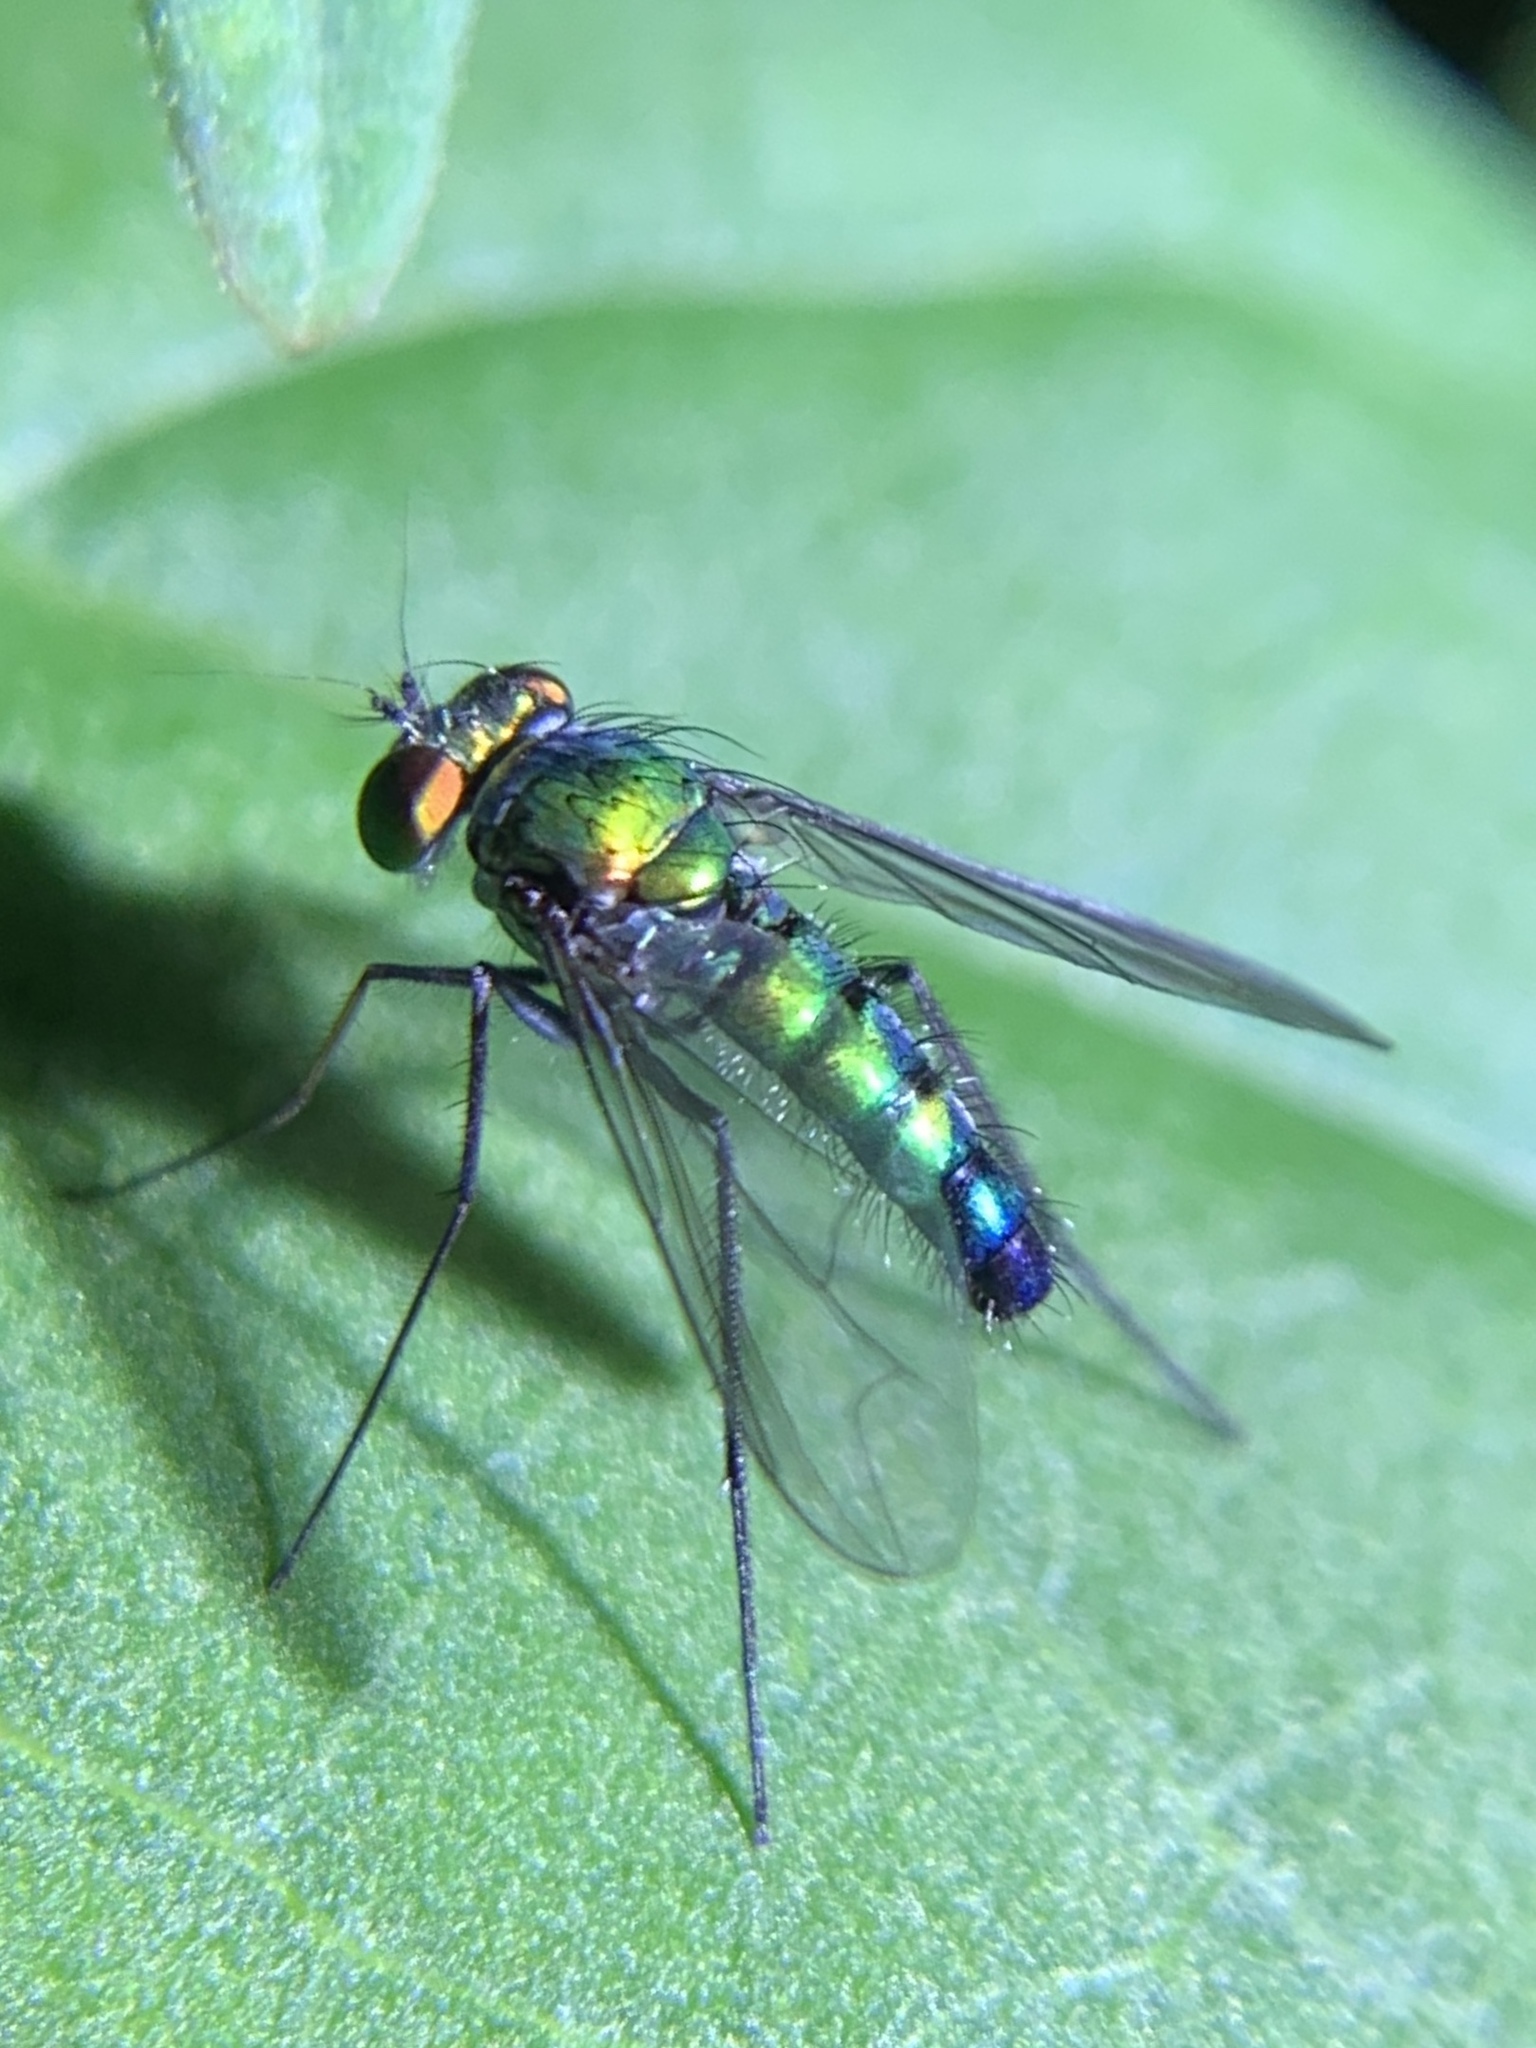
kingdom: Animalia
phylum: Arthropoda
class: Insecta
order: Diptera
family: Dolichopodidae
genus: Condylostylus
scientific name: Condylostylus longicornis
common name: Long-legged fly
